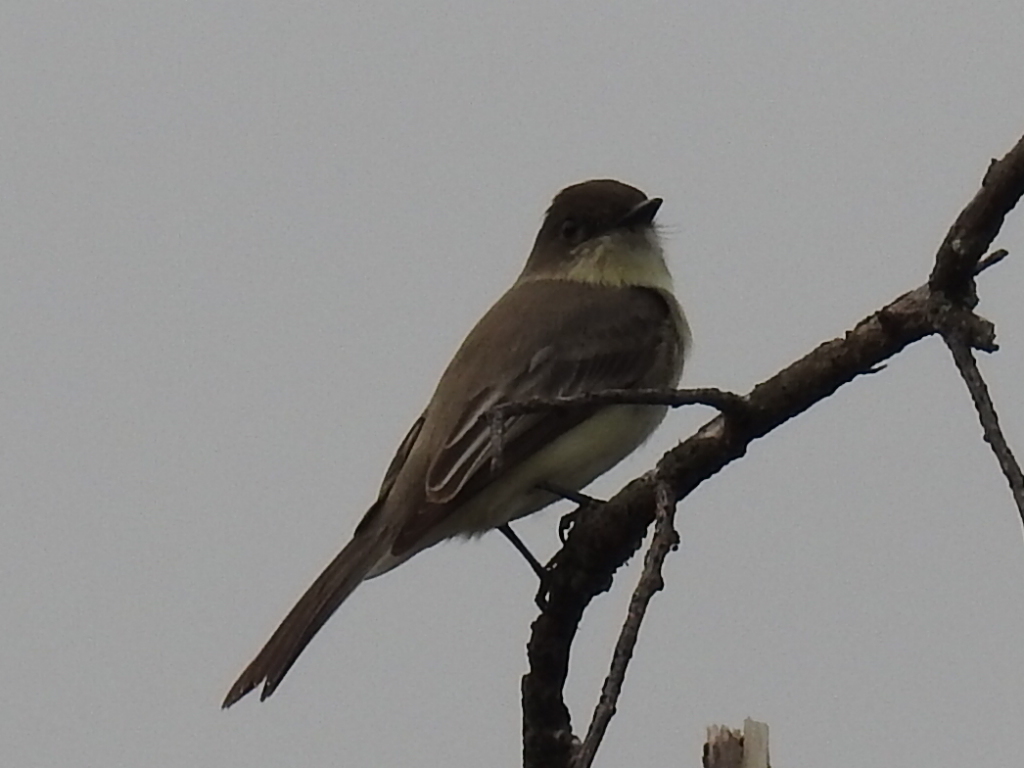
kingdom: Animalia
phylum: Chordata
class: Aves
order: Passeriformes
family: Tyrannidae
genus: Sayornis
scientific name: Sayornis phoebe
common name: Eastern phoebe
